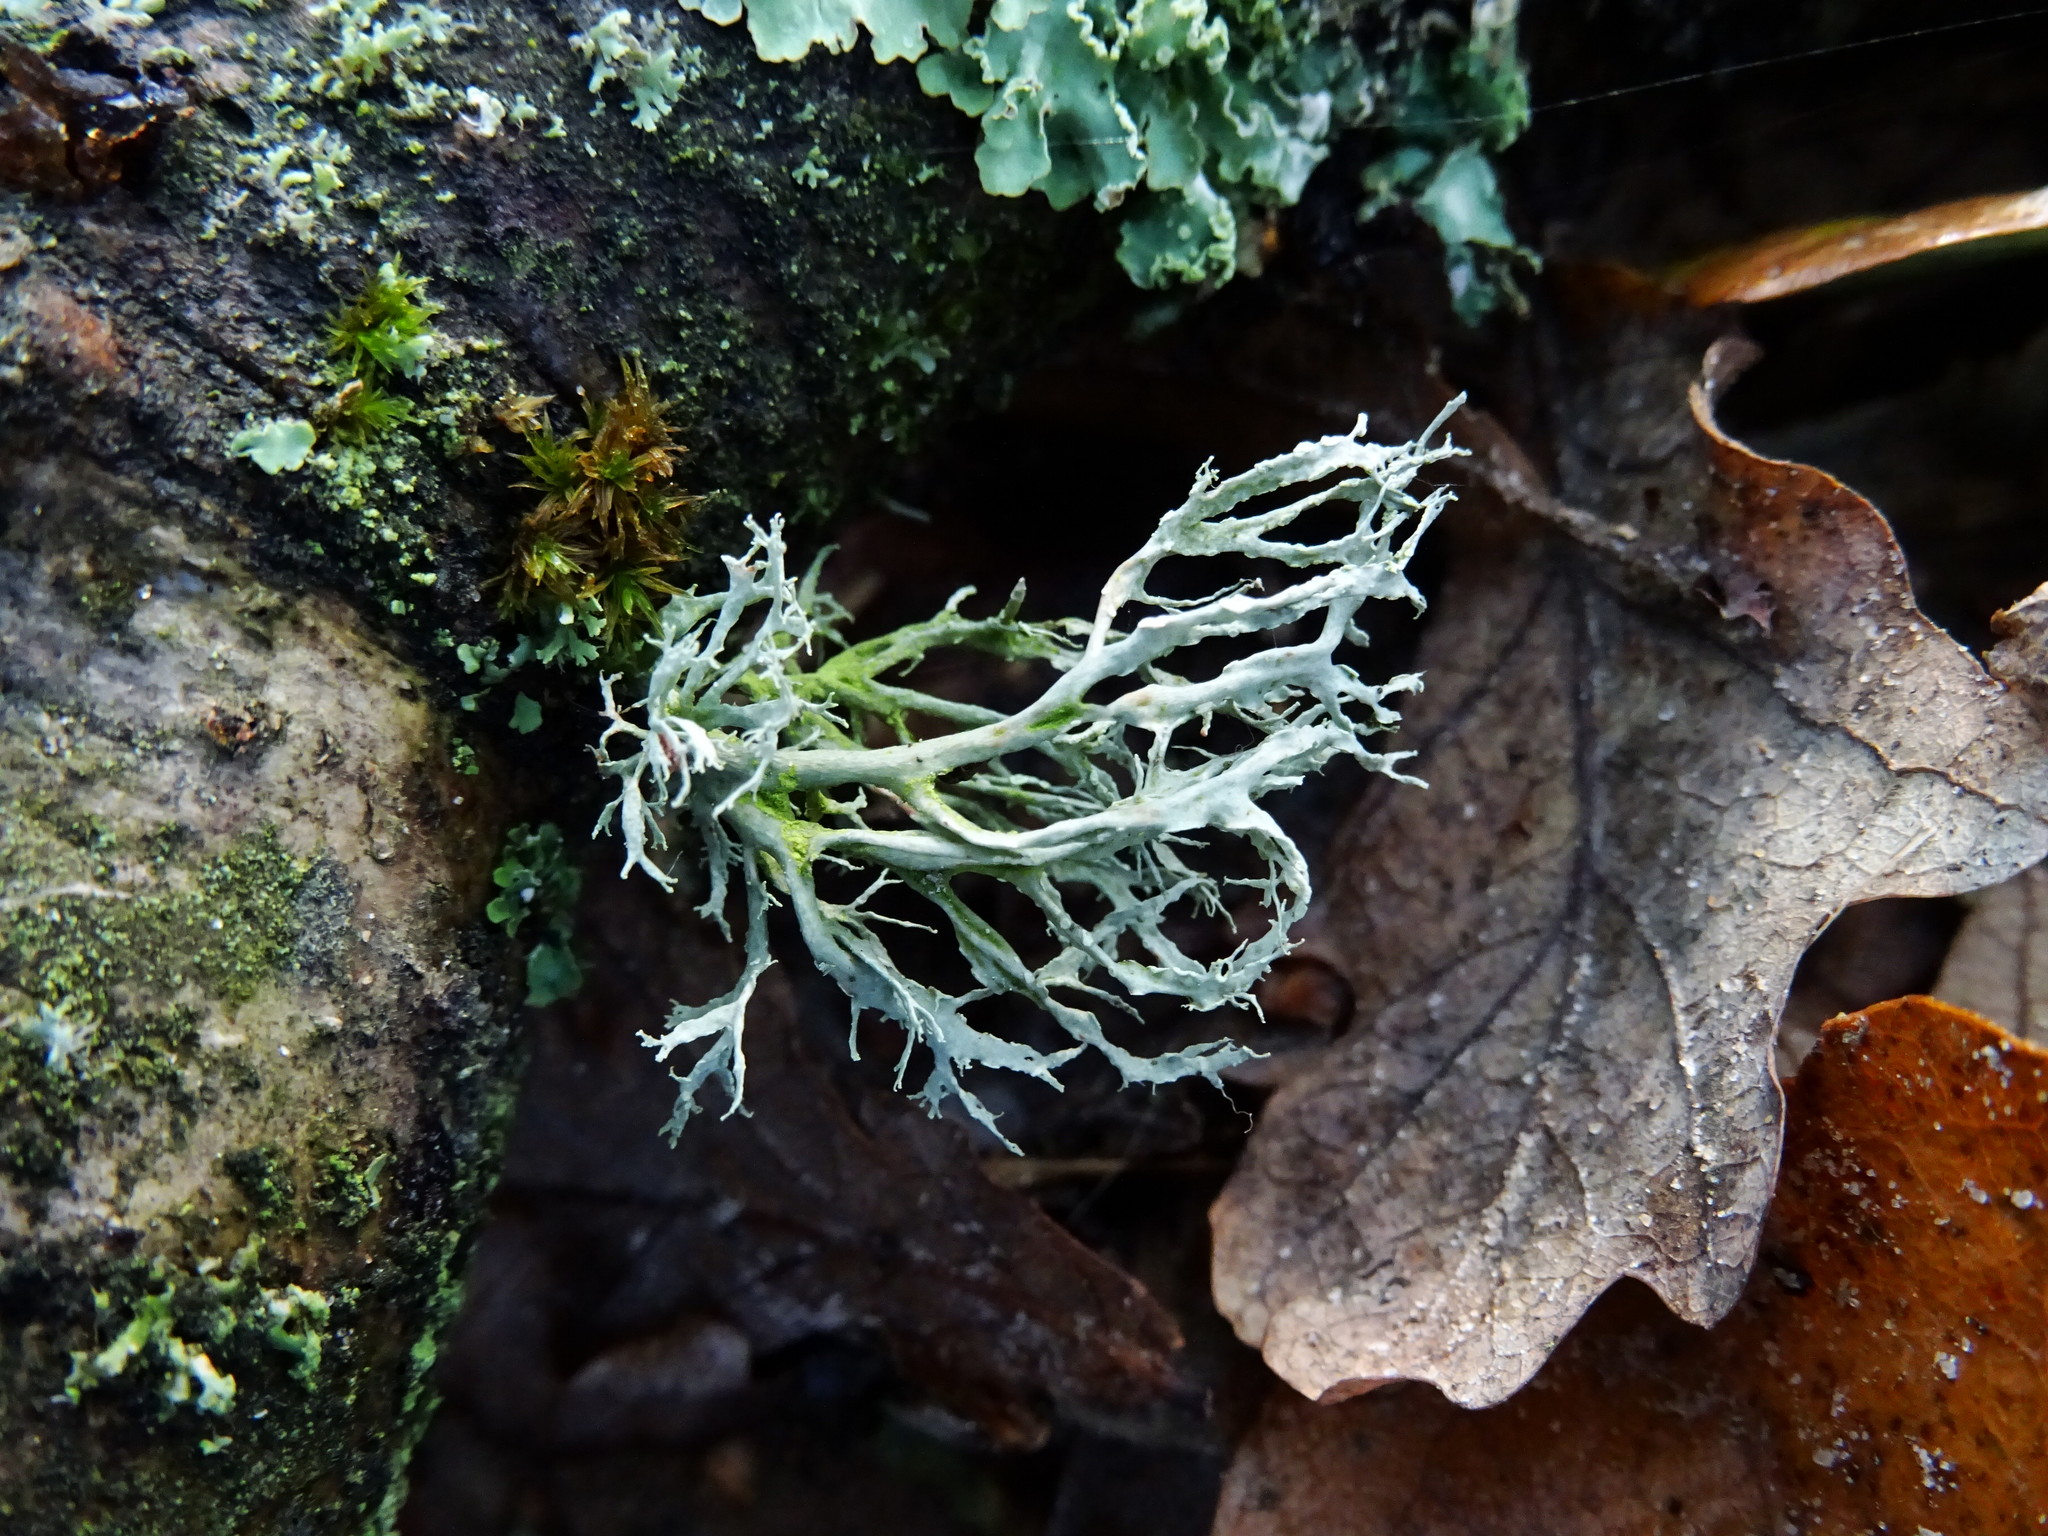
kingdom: Fungi
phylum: Ascomycota
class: Lecanoromycetes
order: Lecanorales
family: Ramalinaceae
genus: Ramalina
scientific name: Ramalina farinacea
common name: Farinose cartilage lichen
